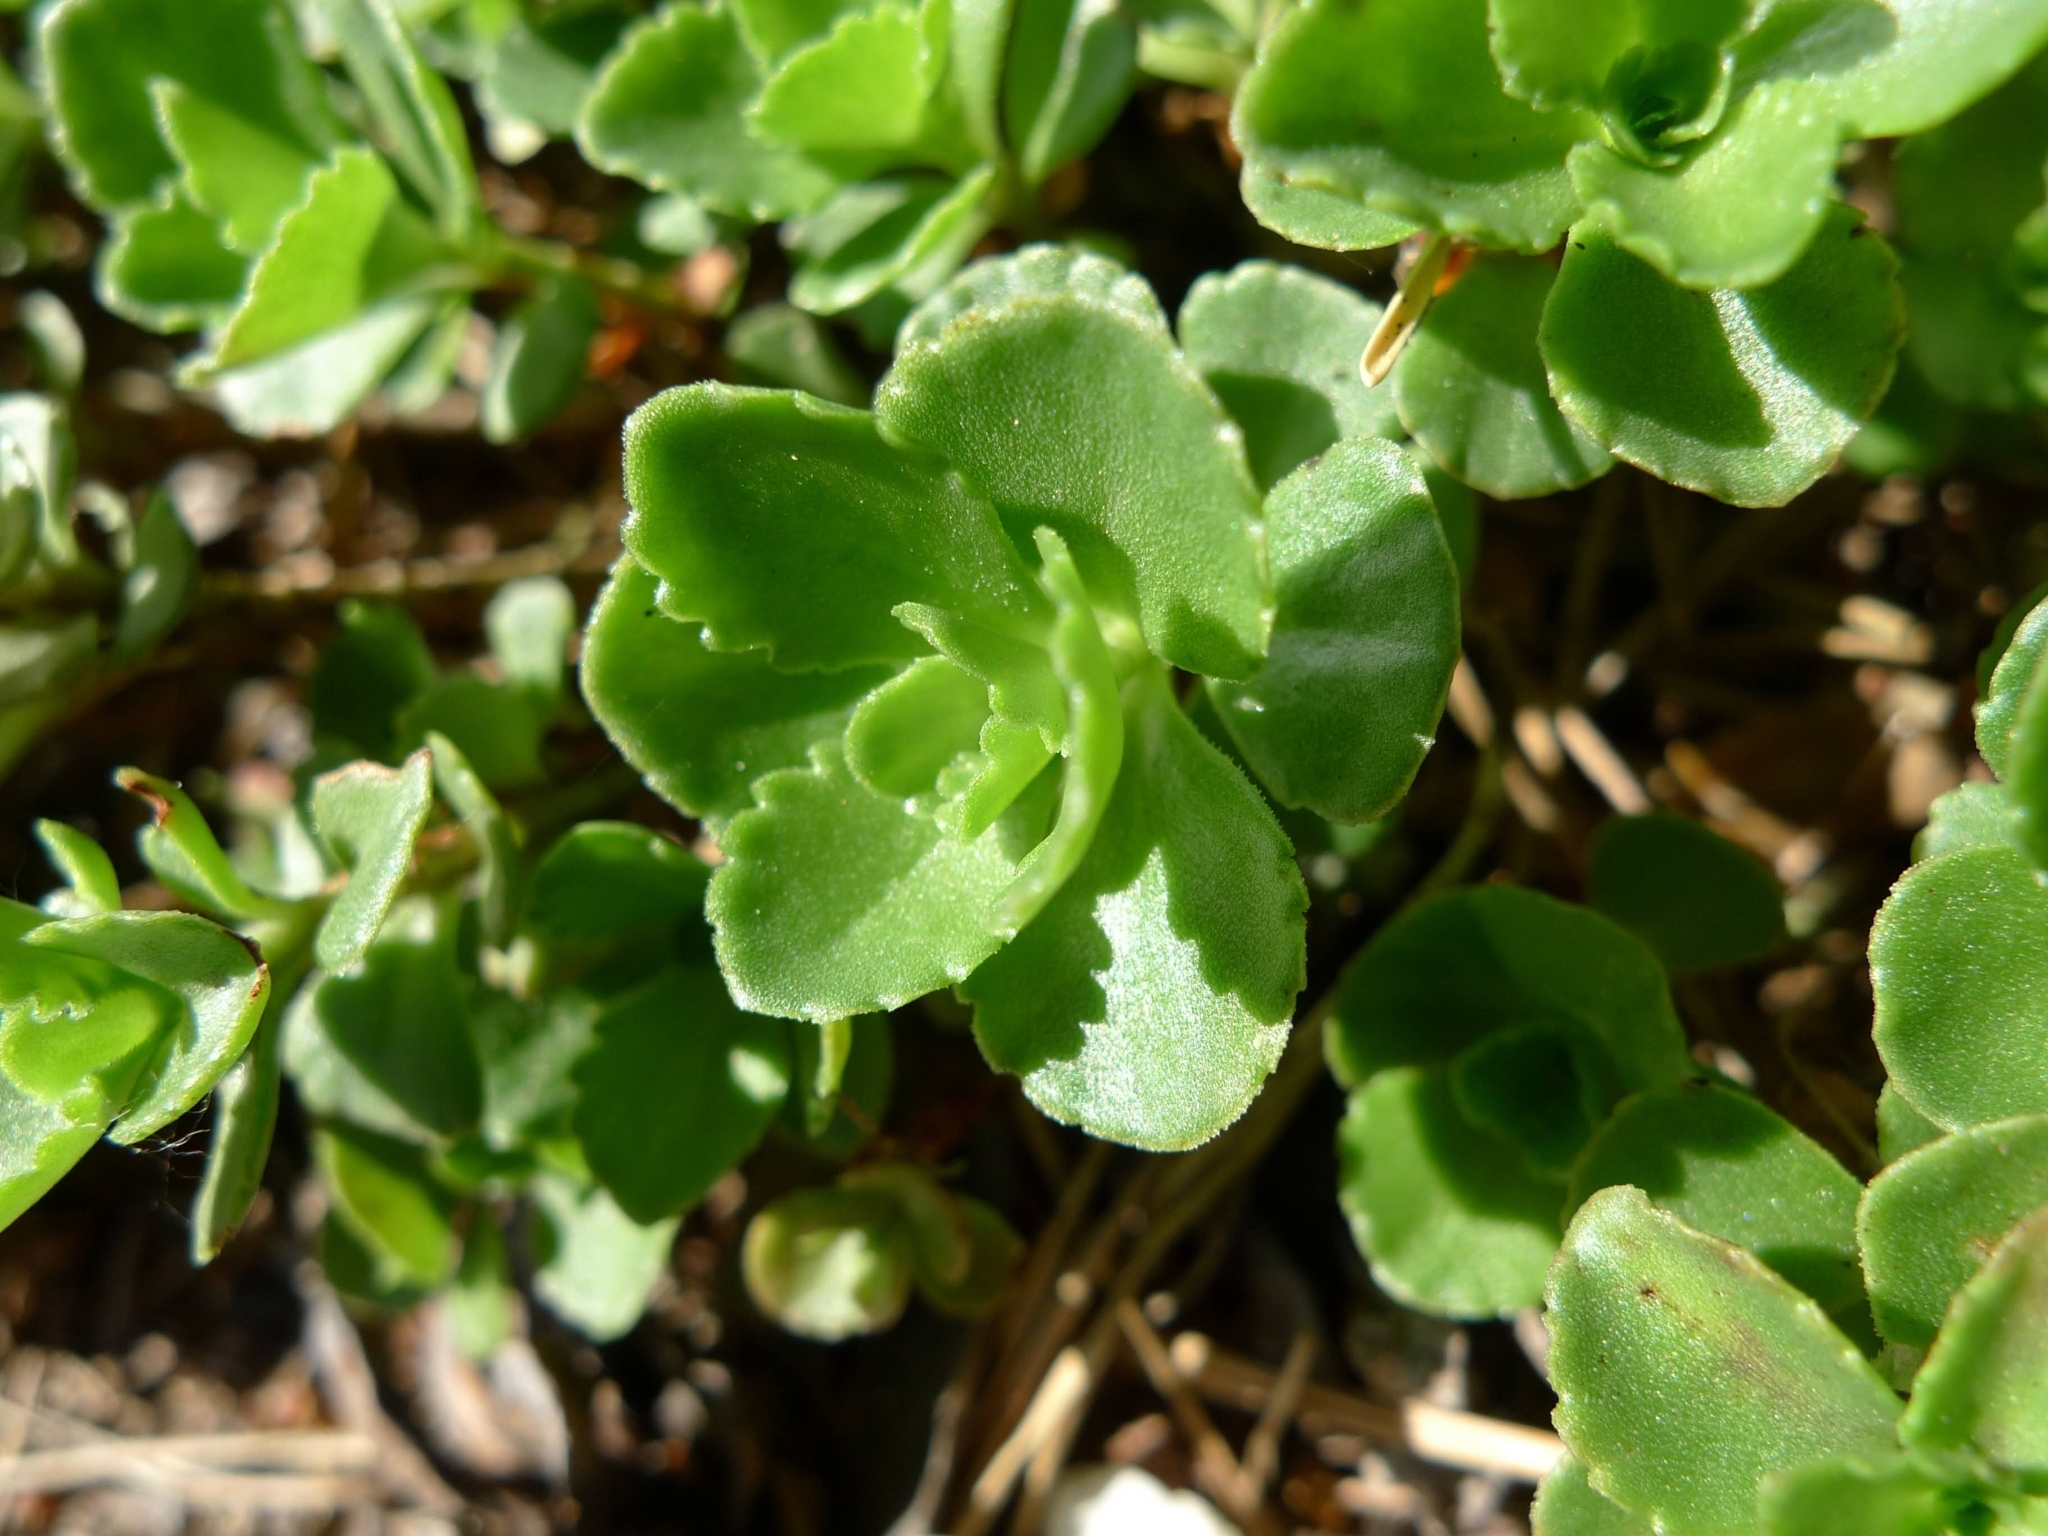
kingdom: Plantae
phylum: Tracheophyta
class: Magnoliopsida
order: Saxifragales
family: Crassulaceae
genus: Phedimus
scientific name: Phedimus spurius
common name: Caucasian stonecrop
